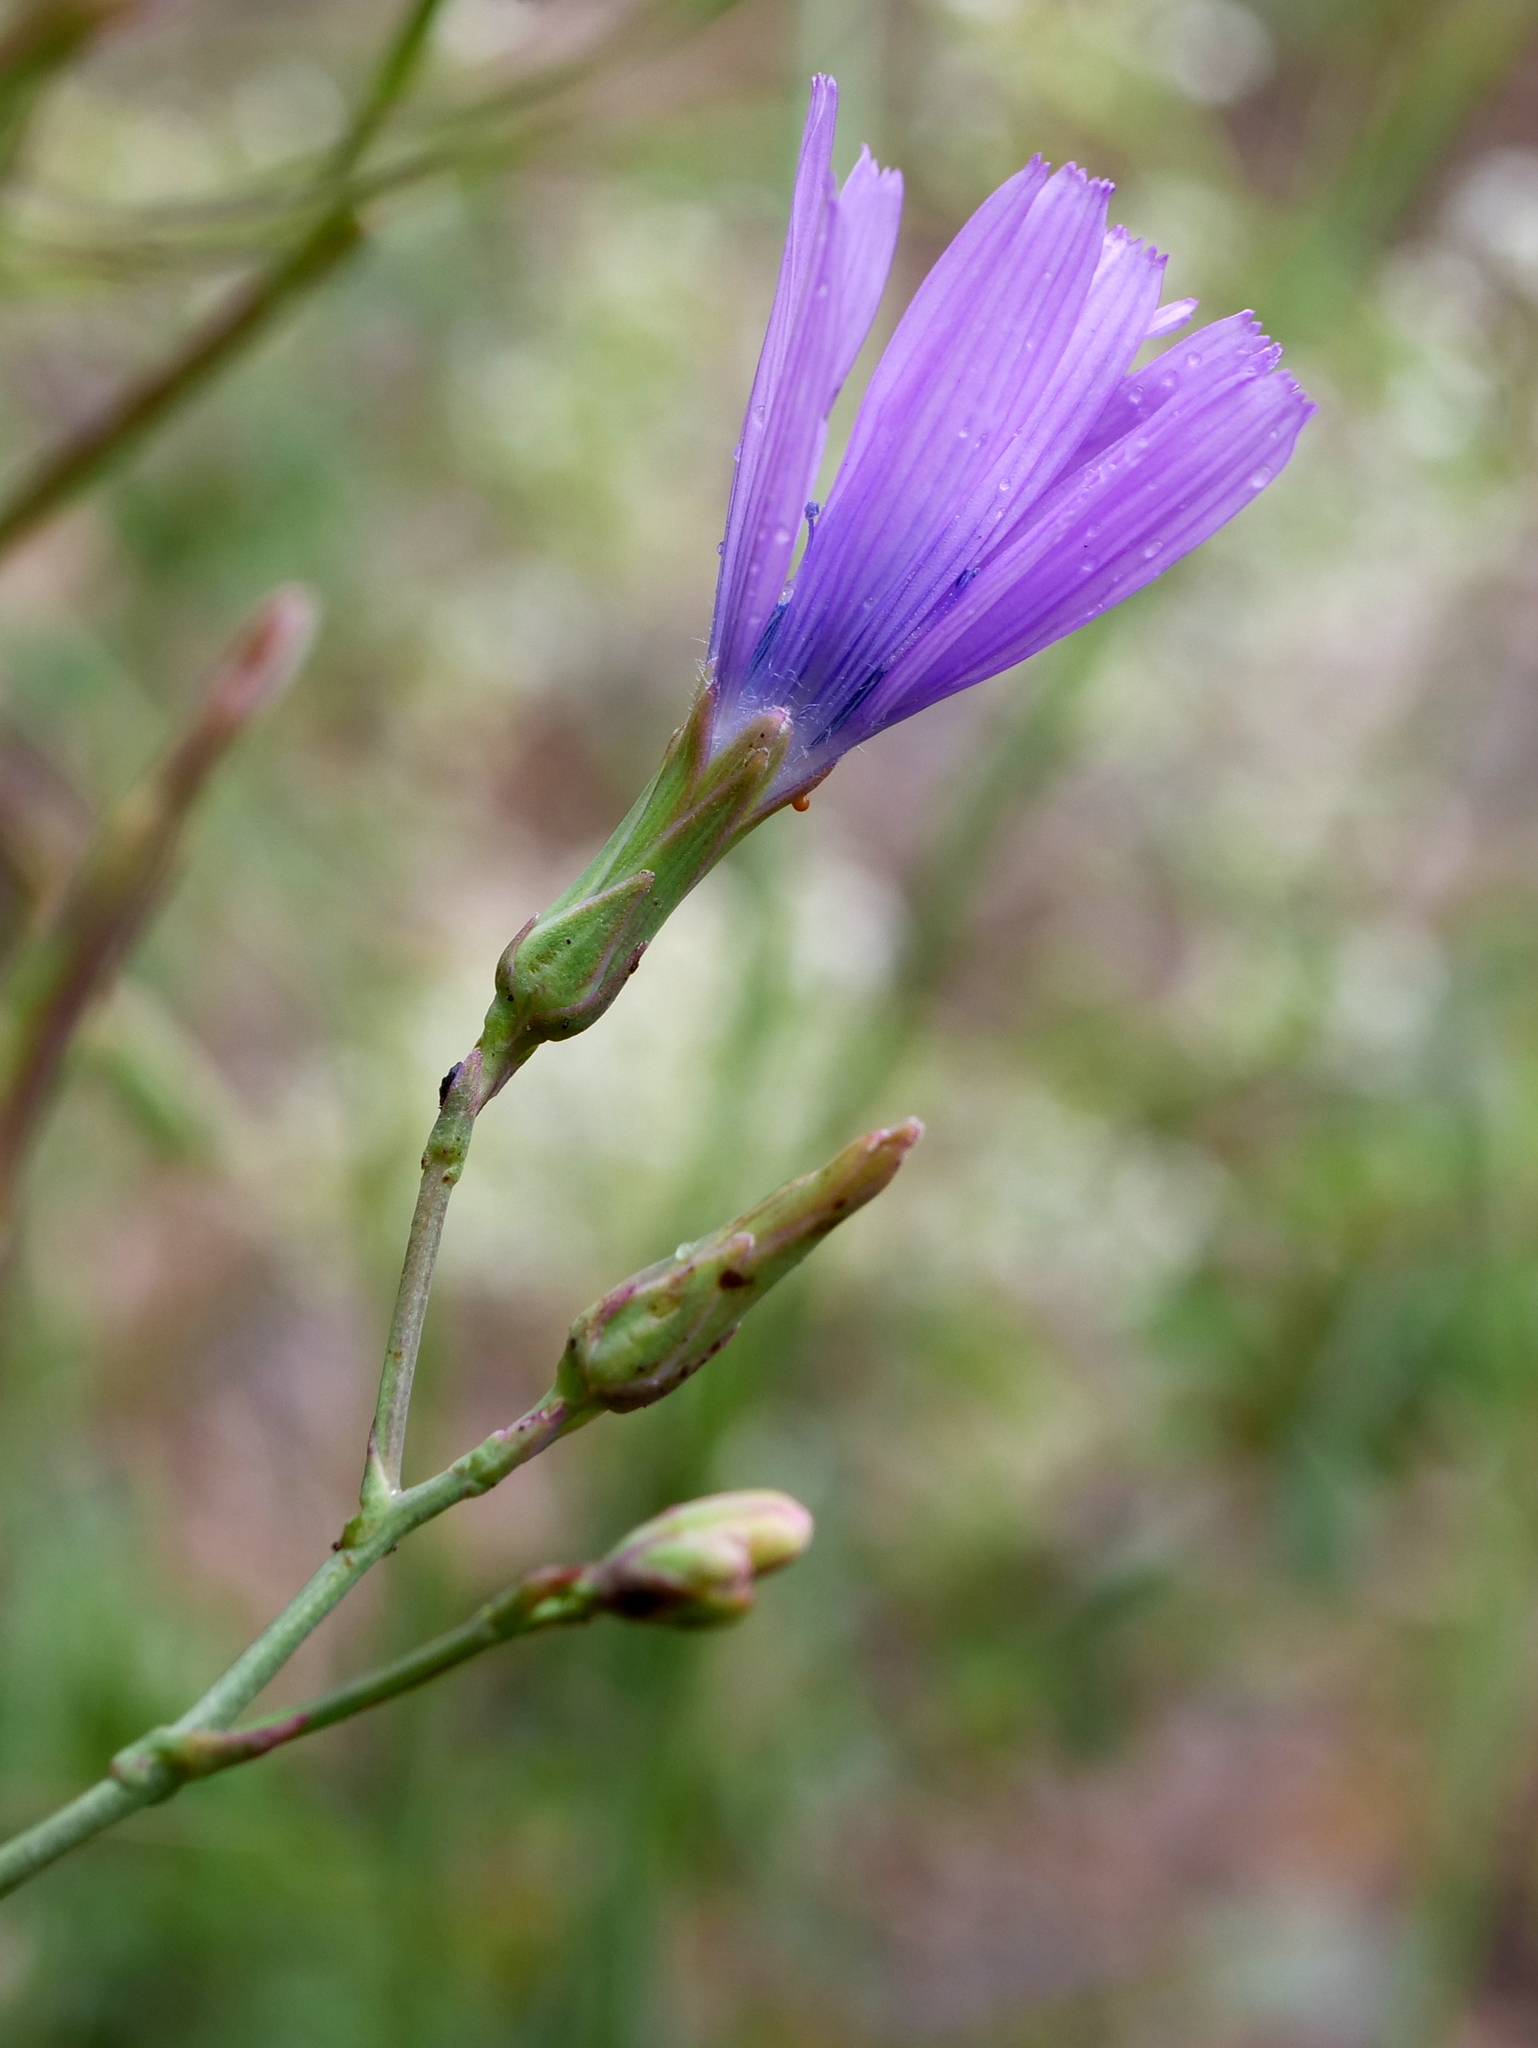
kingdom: Plantae
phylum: Tracheophyta
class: Magnoliopsida
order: Asterales
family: Asteraceae
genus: Lactuca
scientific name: Lactuca perennis
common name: Mountain lettuce
